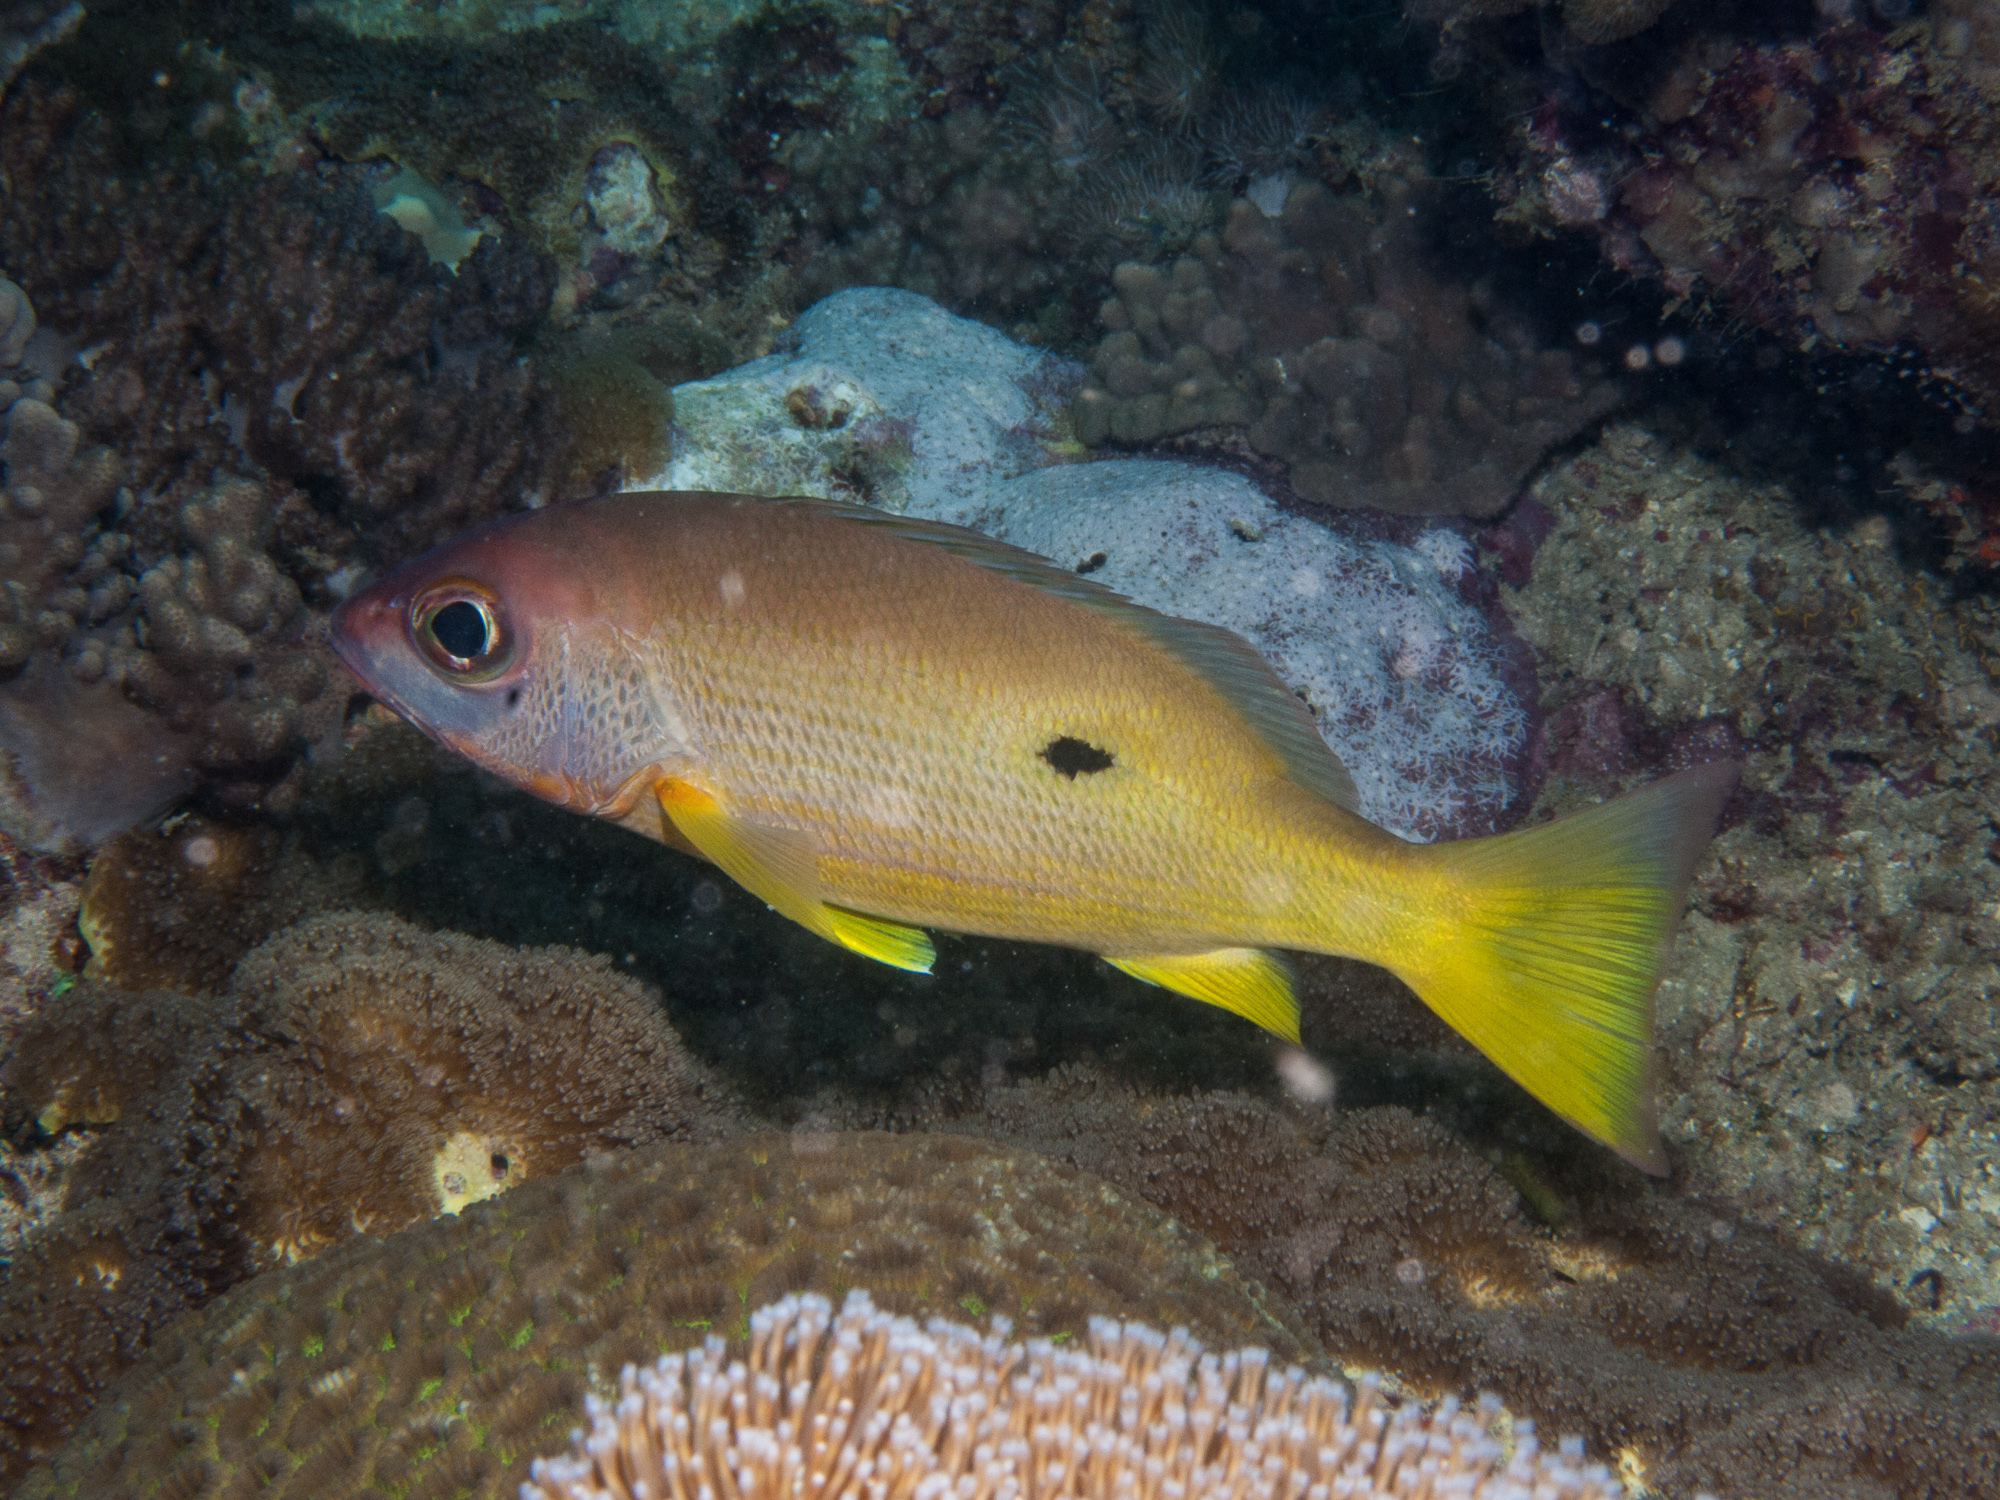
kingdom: Animalia
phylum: Chordata
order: Perciformes
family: Lutjanidae
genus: Lutjanus
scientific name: Lutjanus fulviflamma
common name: Blackspot snapper
